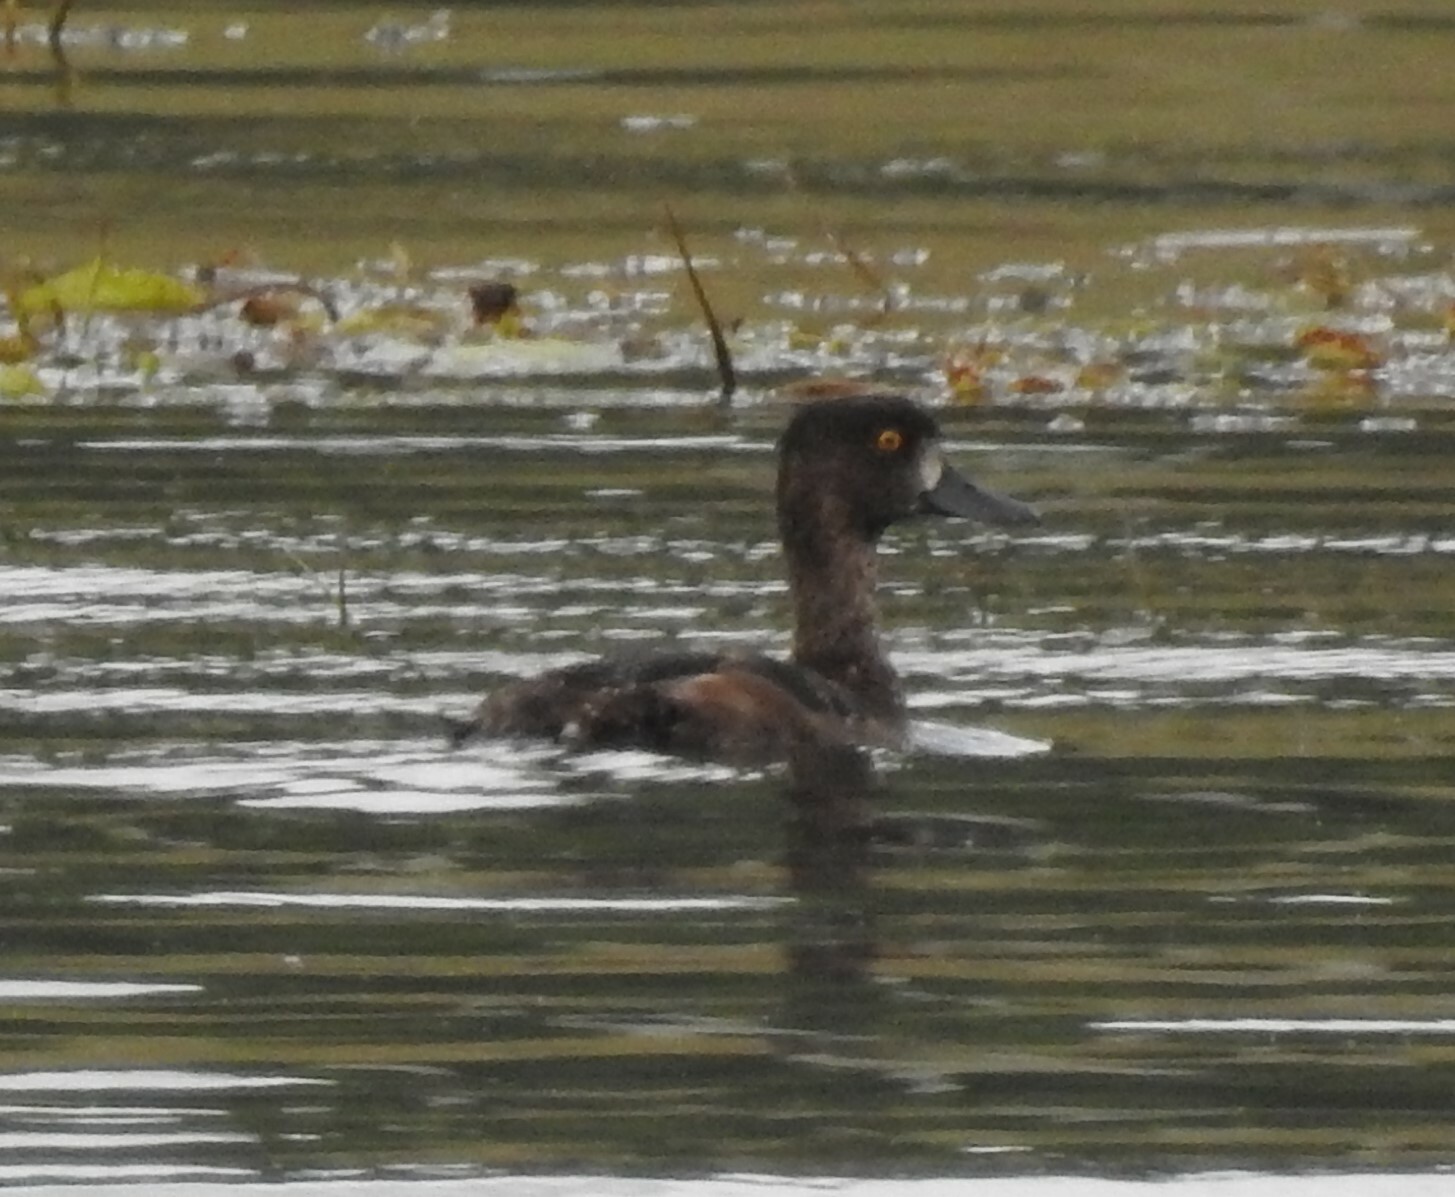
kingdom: Animalia
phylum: Chordata
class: Aves
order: Anseriformes
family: Anatidae
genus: Aythya
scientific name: Aythya fuligula
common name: Tufted duck
